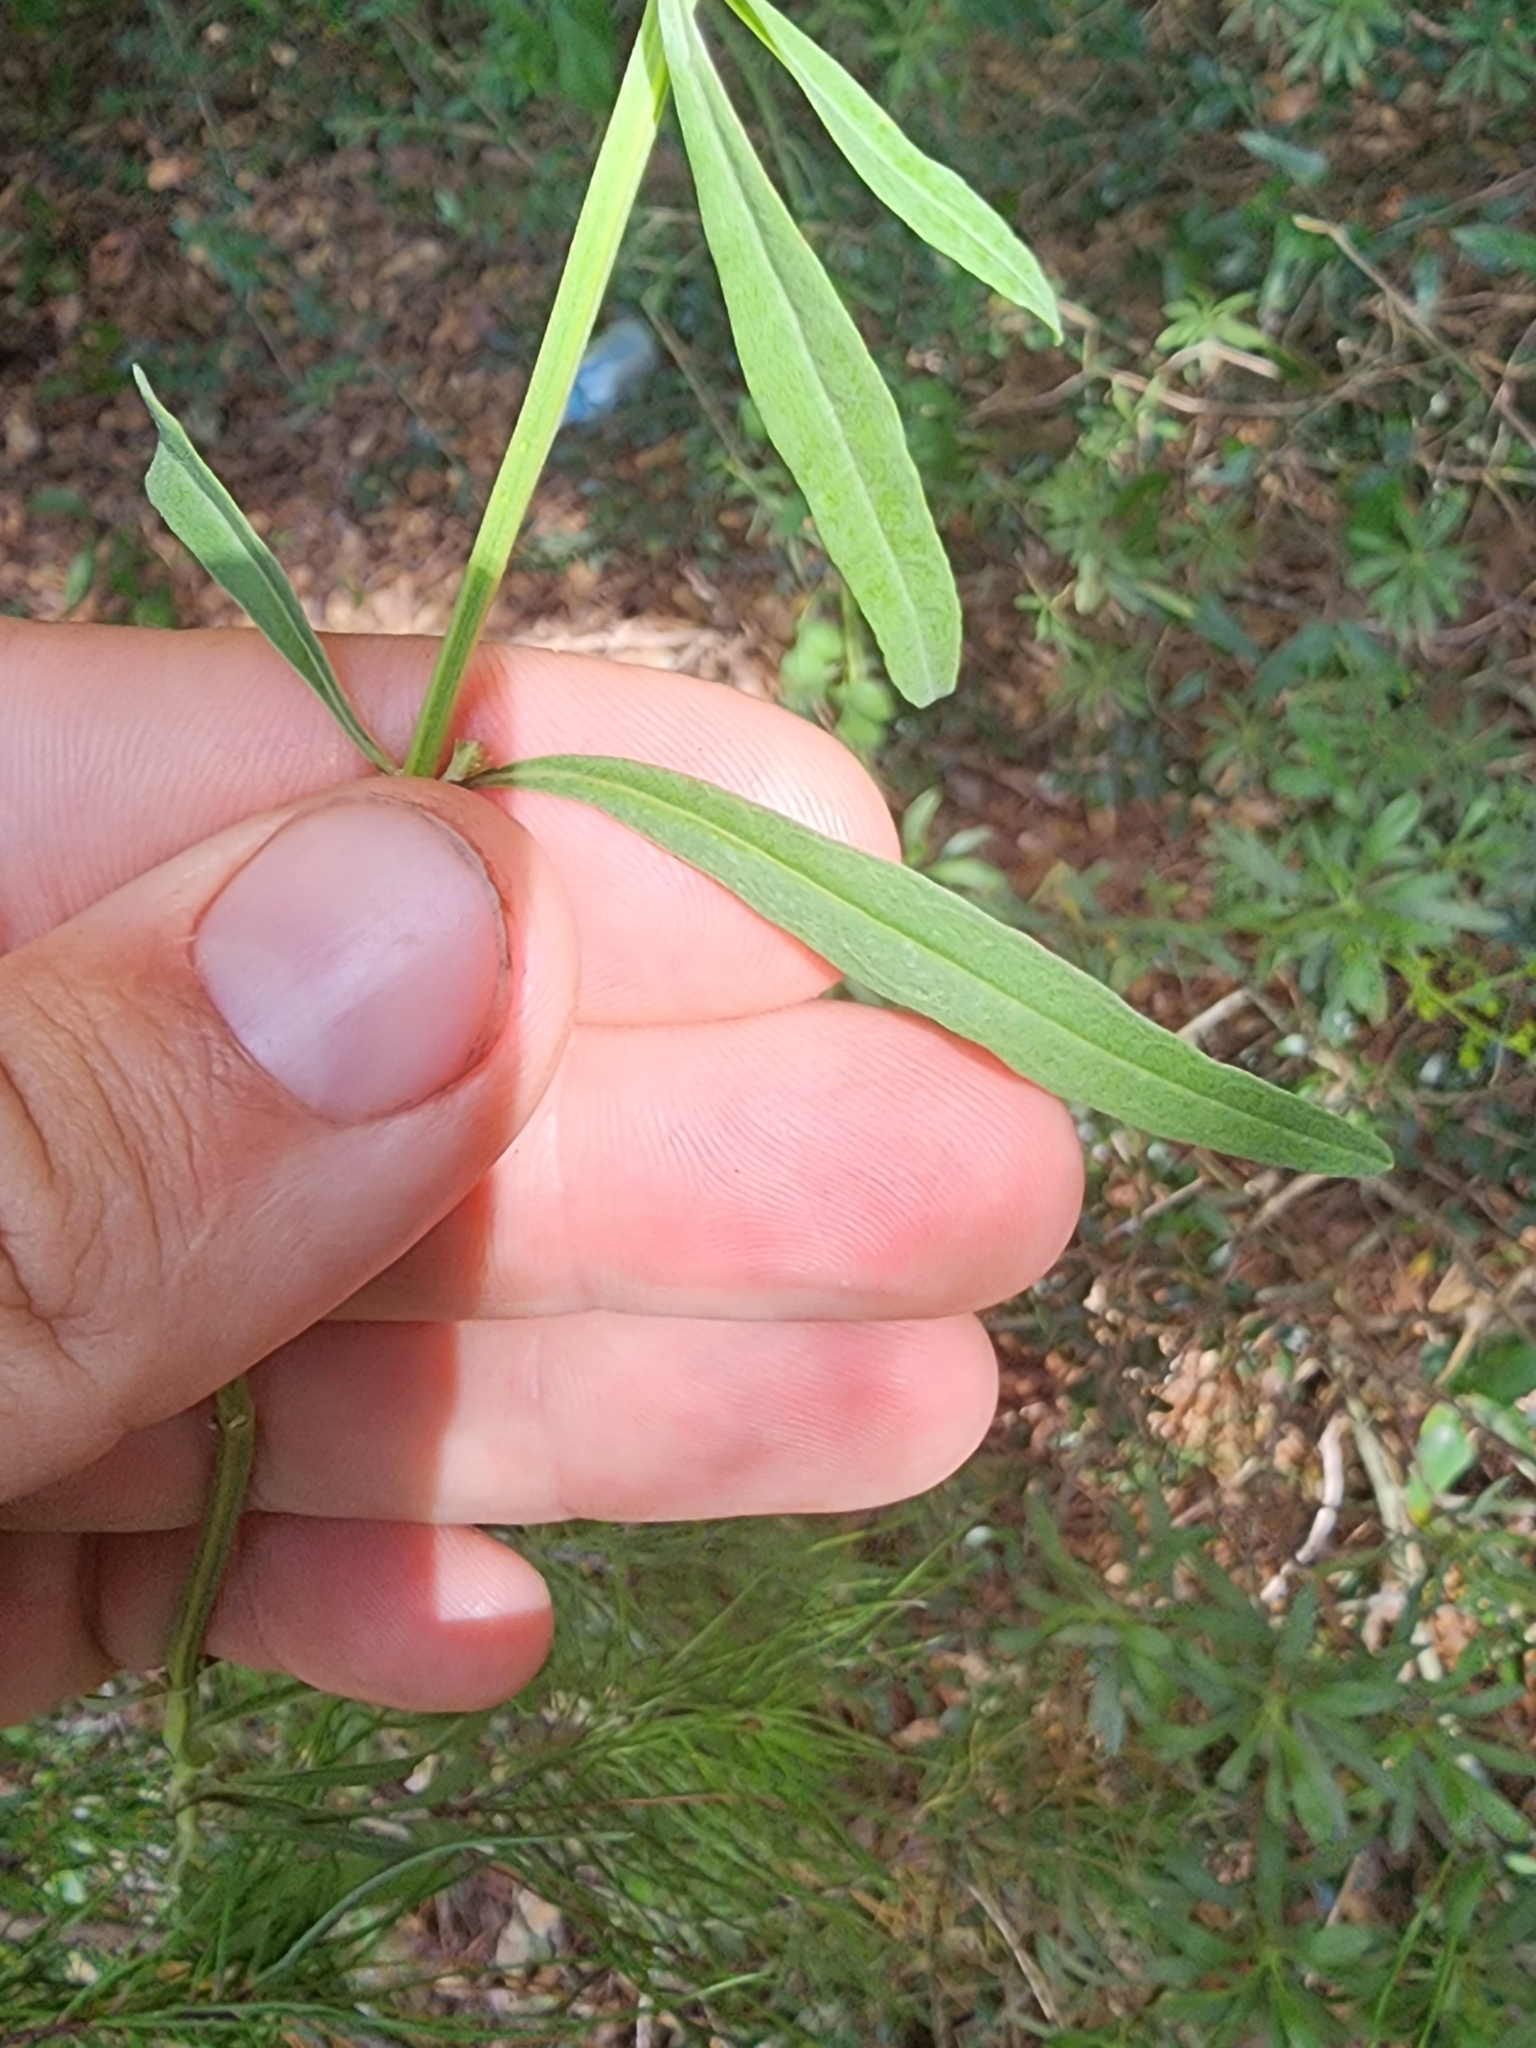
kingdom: Plantae
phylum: Tracheophyta
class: Magnoliopsida
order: Lamiales
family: Lamiaceae
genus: Salvia
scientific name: Salvia azurea
